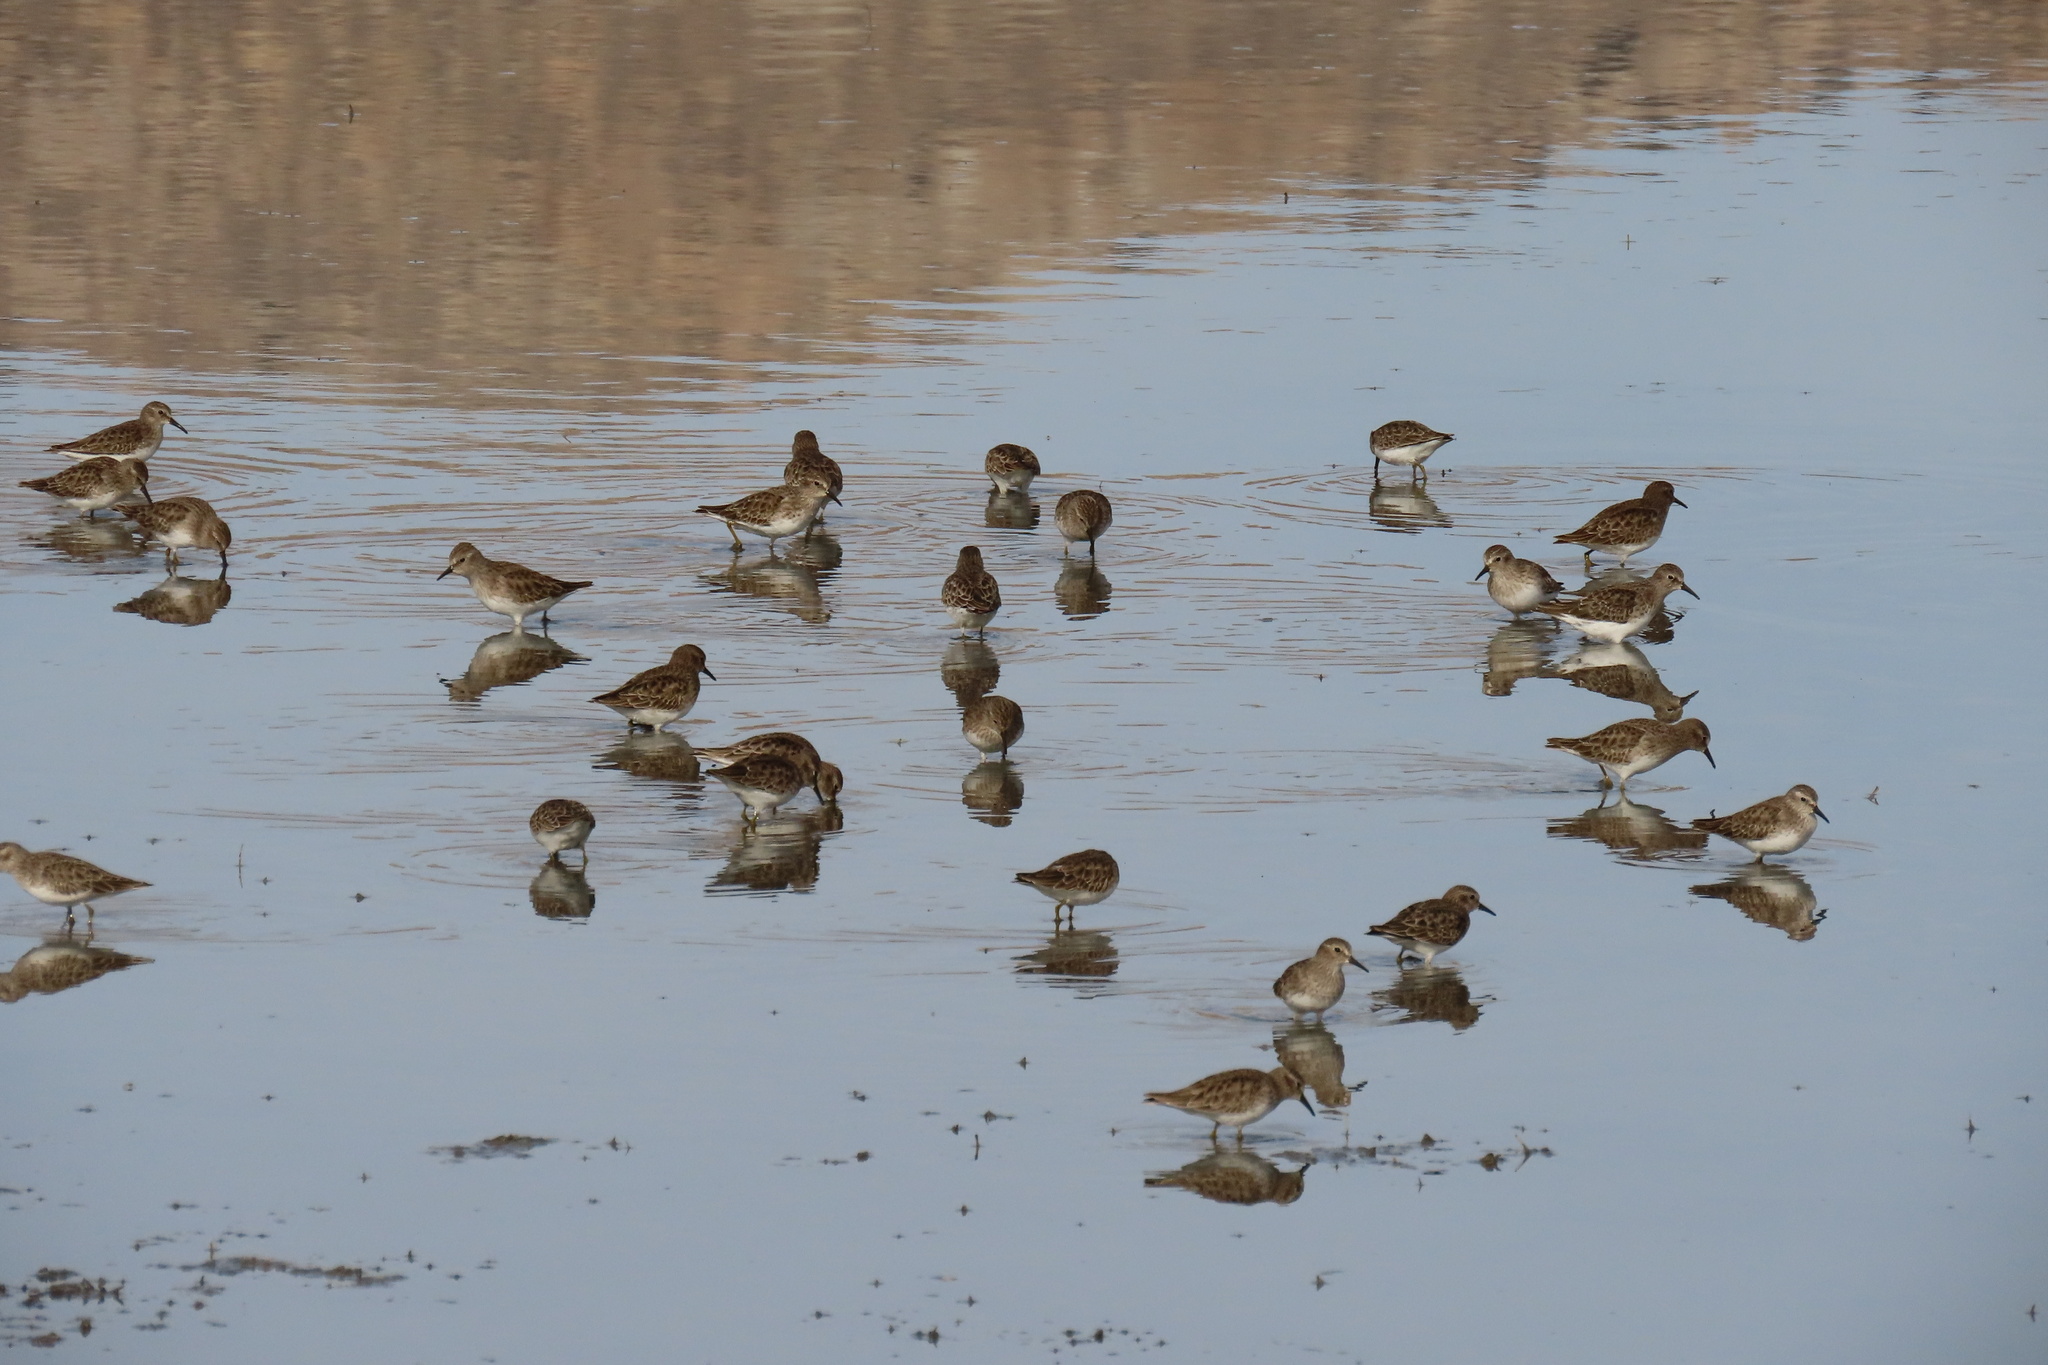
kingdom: Animalia
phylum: Chordata
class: Aves
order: Charadriiformes
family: Scolopacidae
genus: Calidris
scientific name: Calidris minutilla
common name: Least sandpiper
